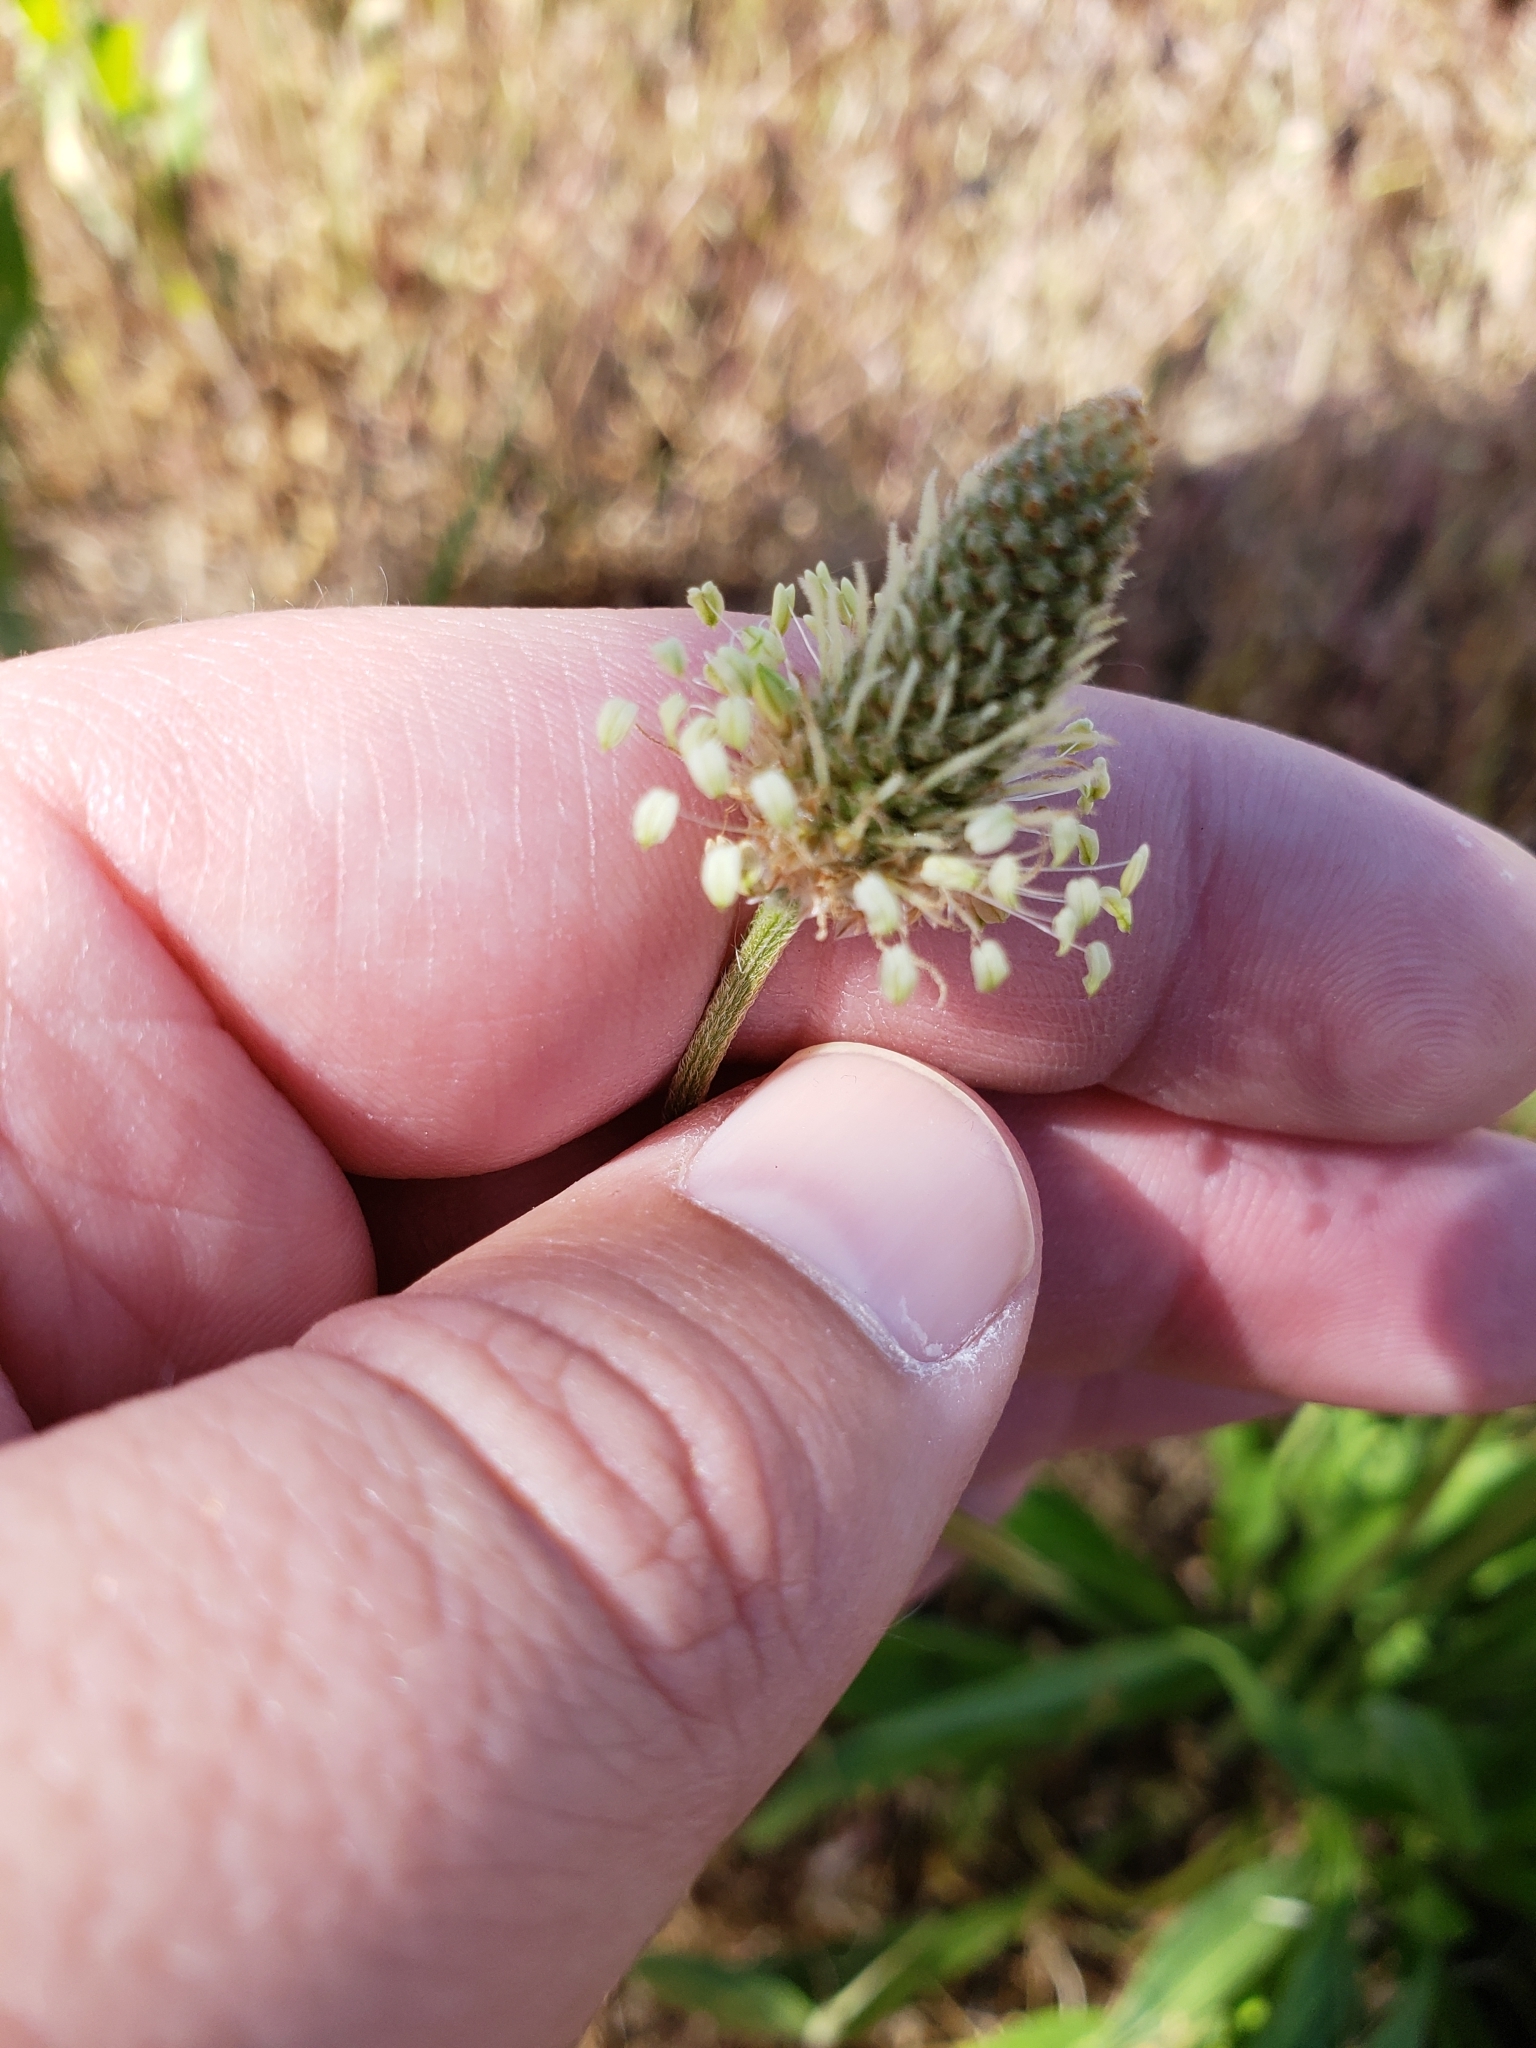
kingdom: Plantae
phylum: Tracheophyta
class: Magnoliopsida
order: Lamiales
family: Plantaginaceae
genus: Plantago
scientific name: Plantago lanceolata
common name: Ribwort plantain
